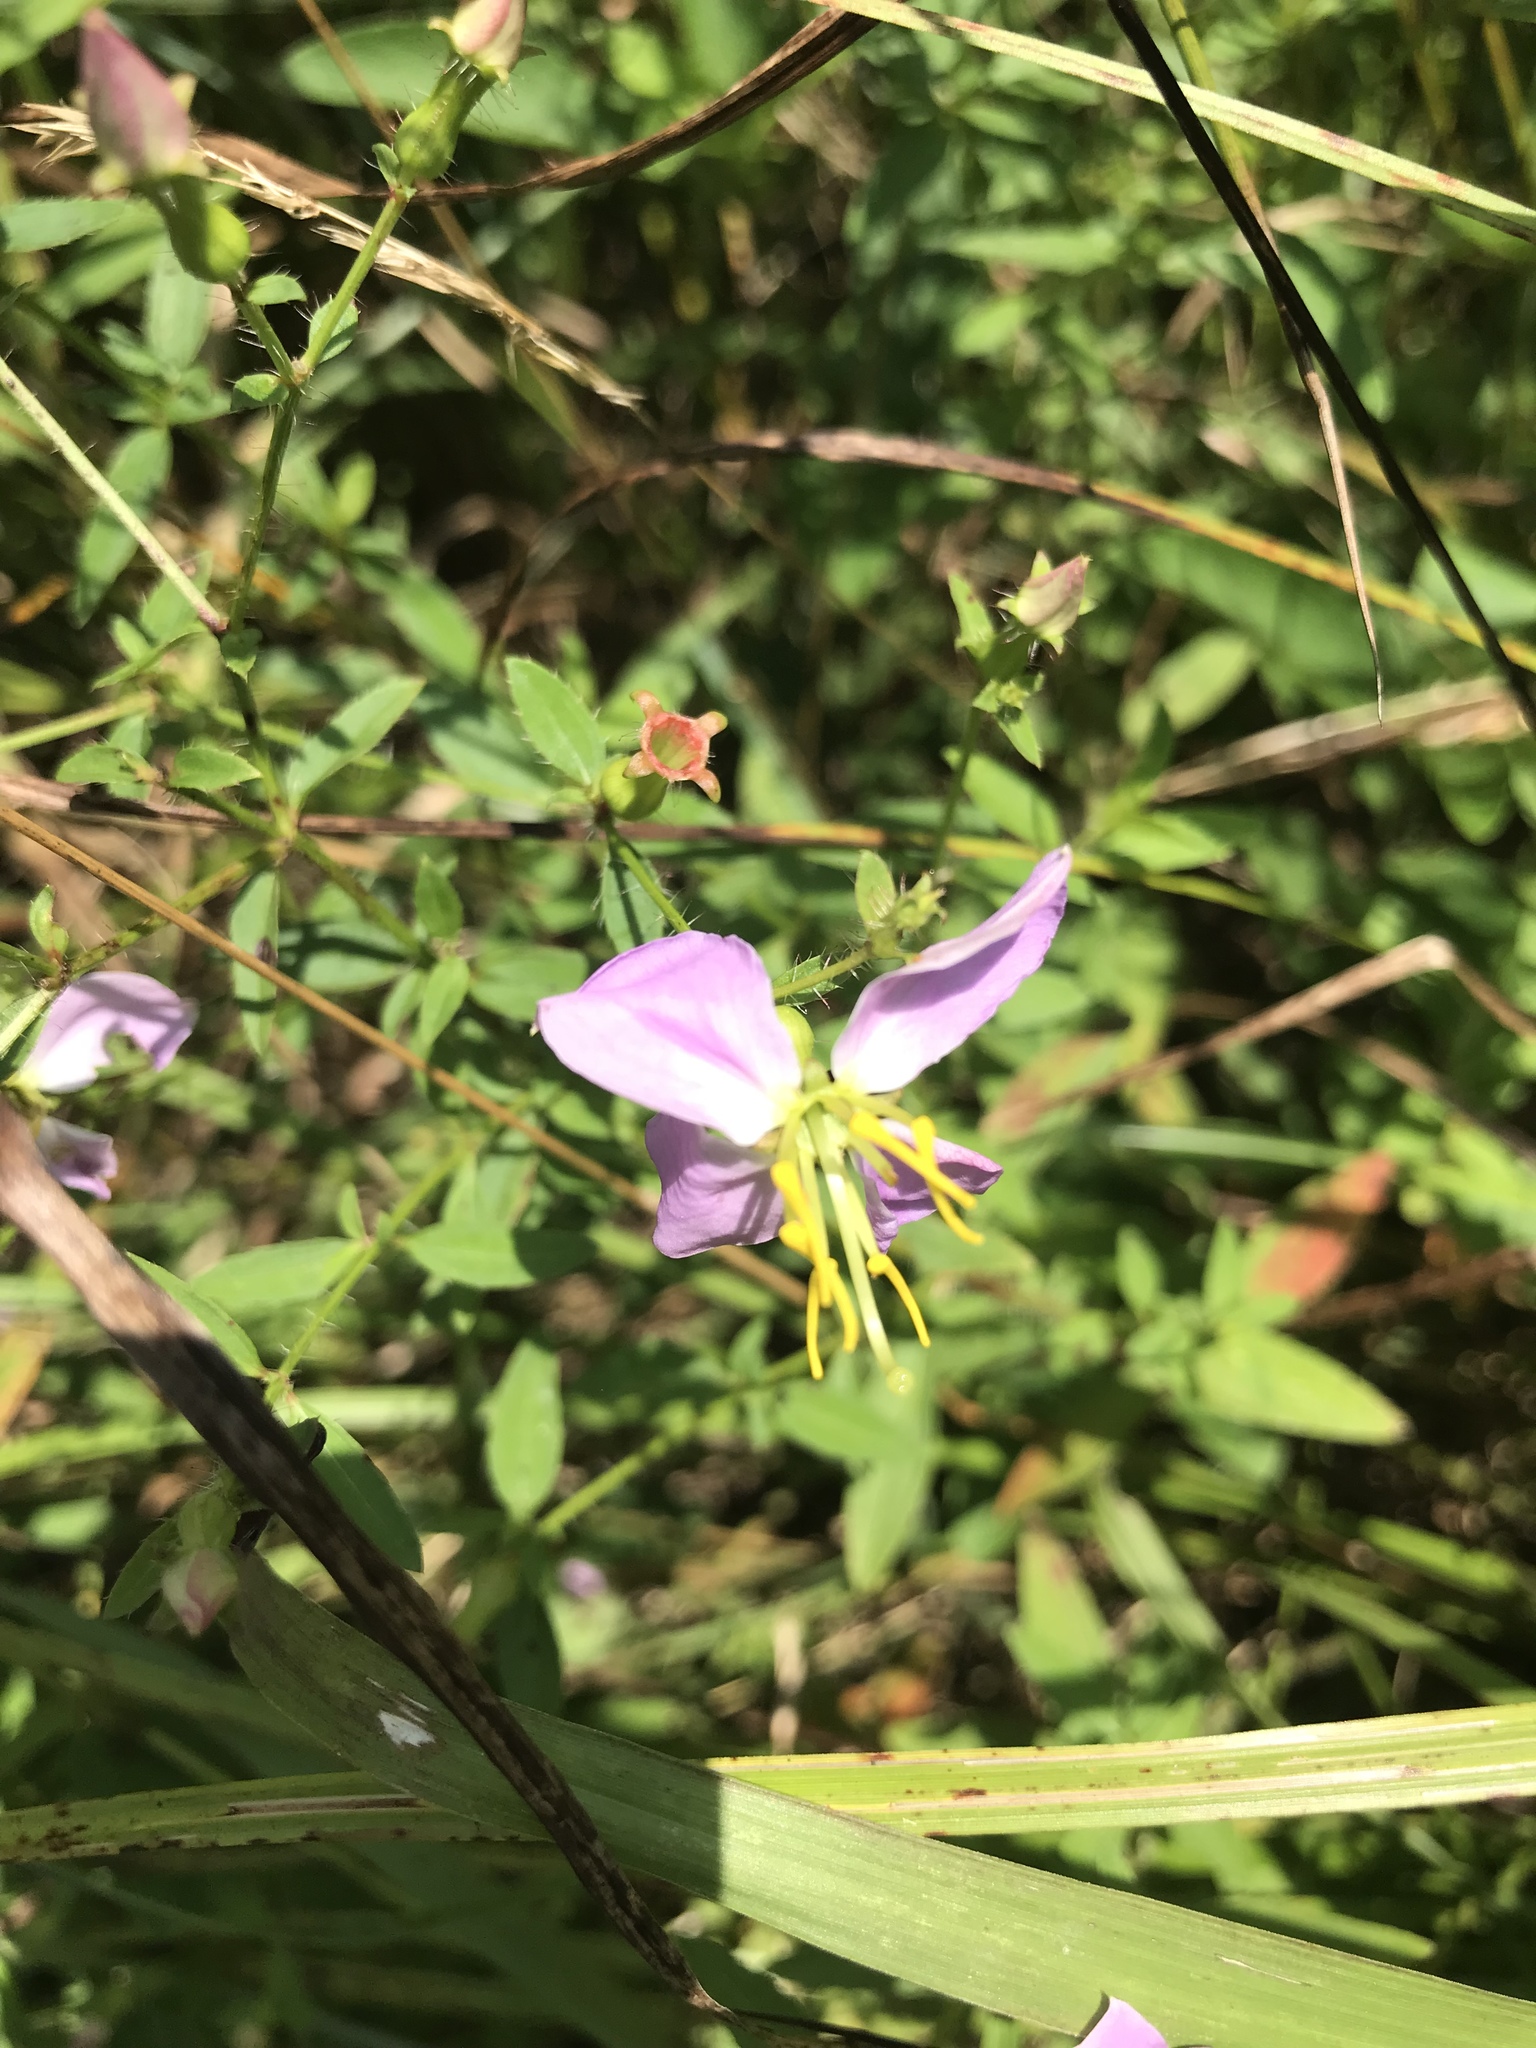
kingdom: Plantae
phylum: Tracheophyta
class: Magnoliopsida
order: Myrtales
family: Melastomataceae
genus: Rhexia
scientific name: Rhexia mariana
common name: Dull meadow-pitcher
